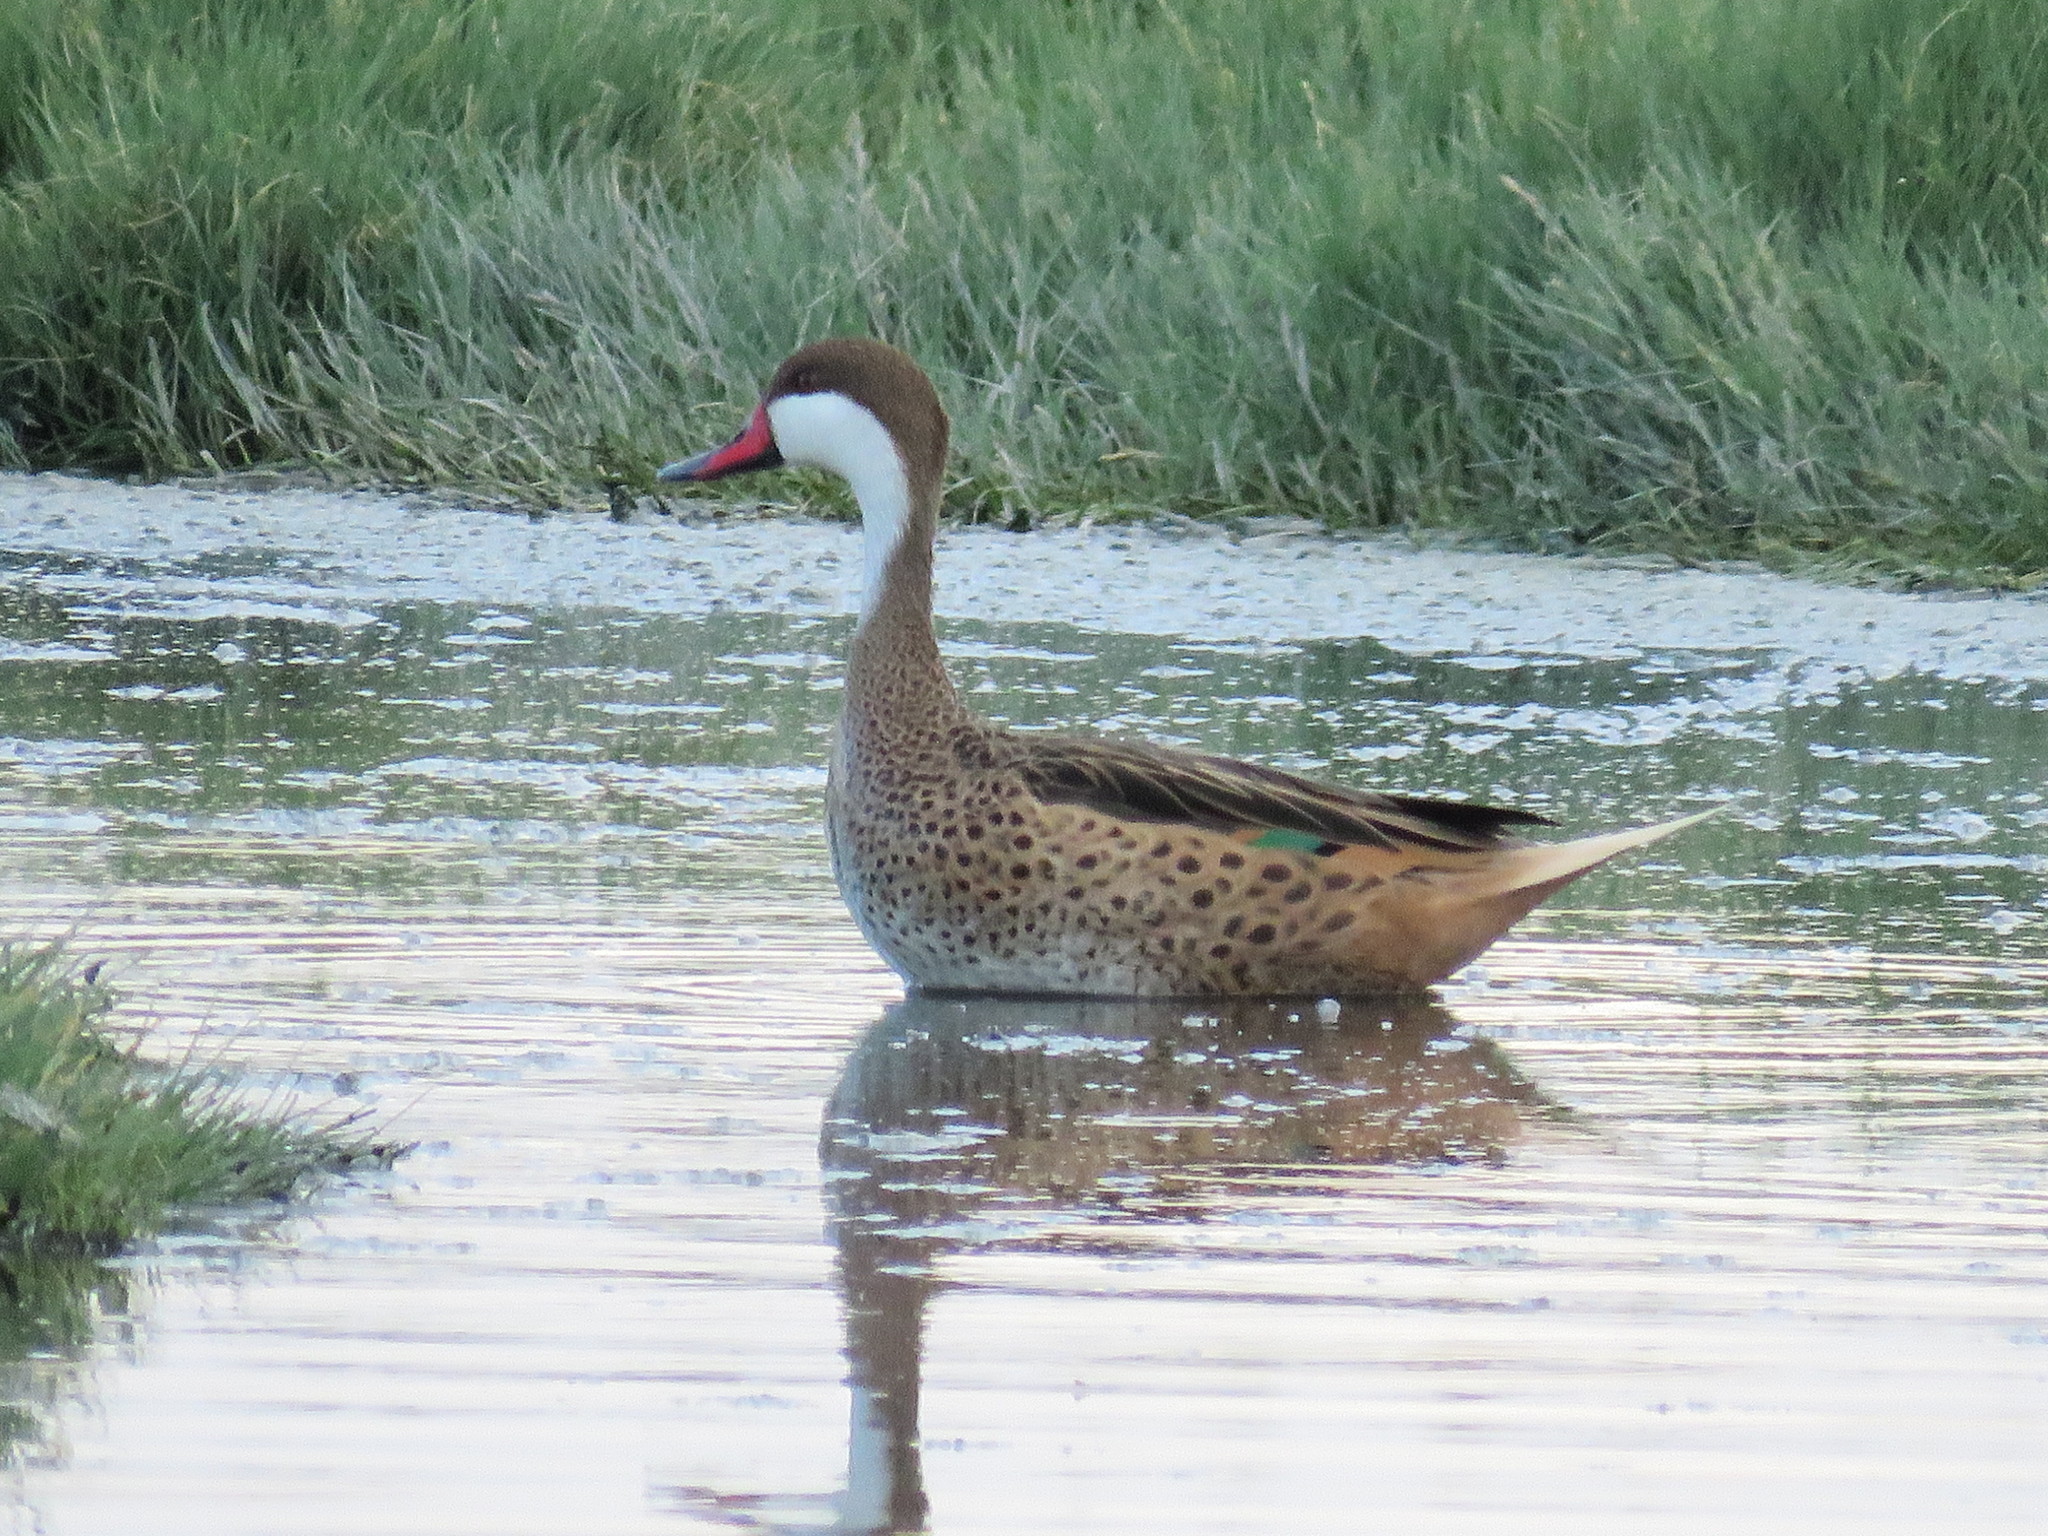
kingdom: Animalia
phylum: Chordata
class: Aves
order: Anseriformes
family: Anatidae
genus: Anas
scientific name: Anas bahamensis
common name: White-cheeked pintail
